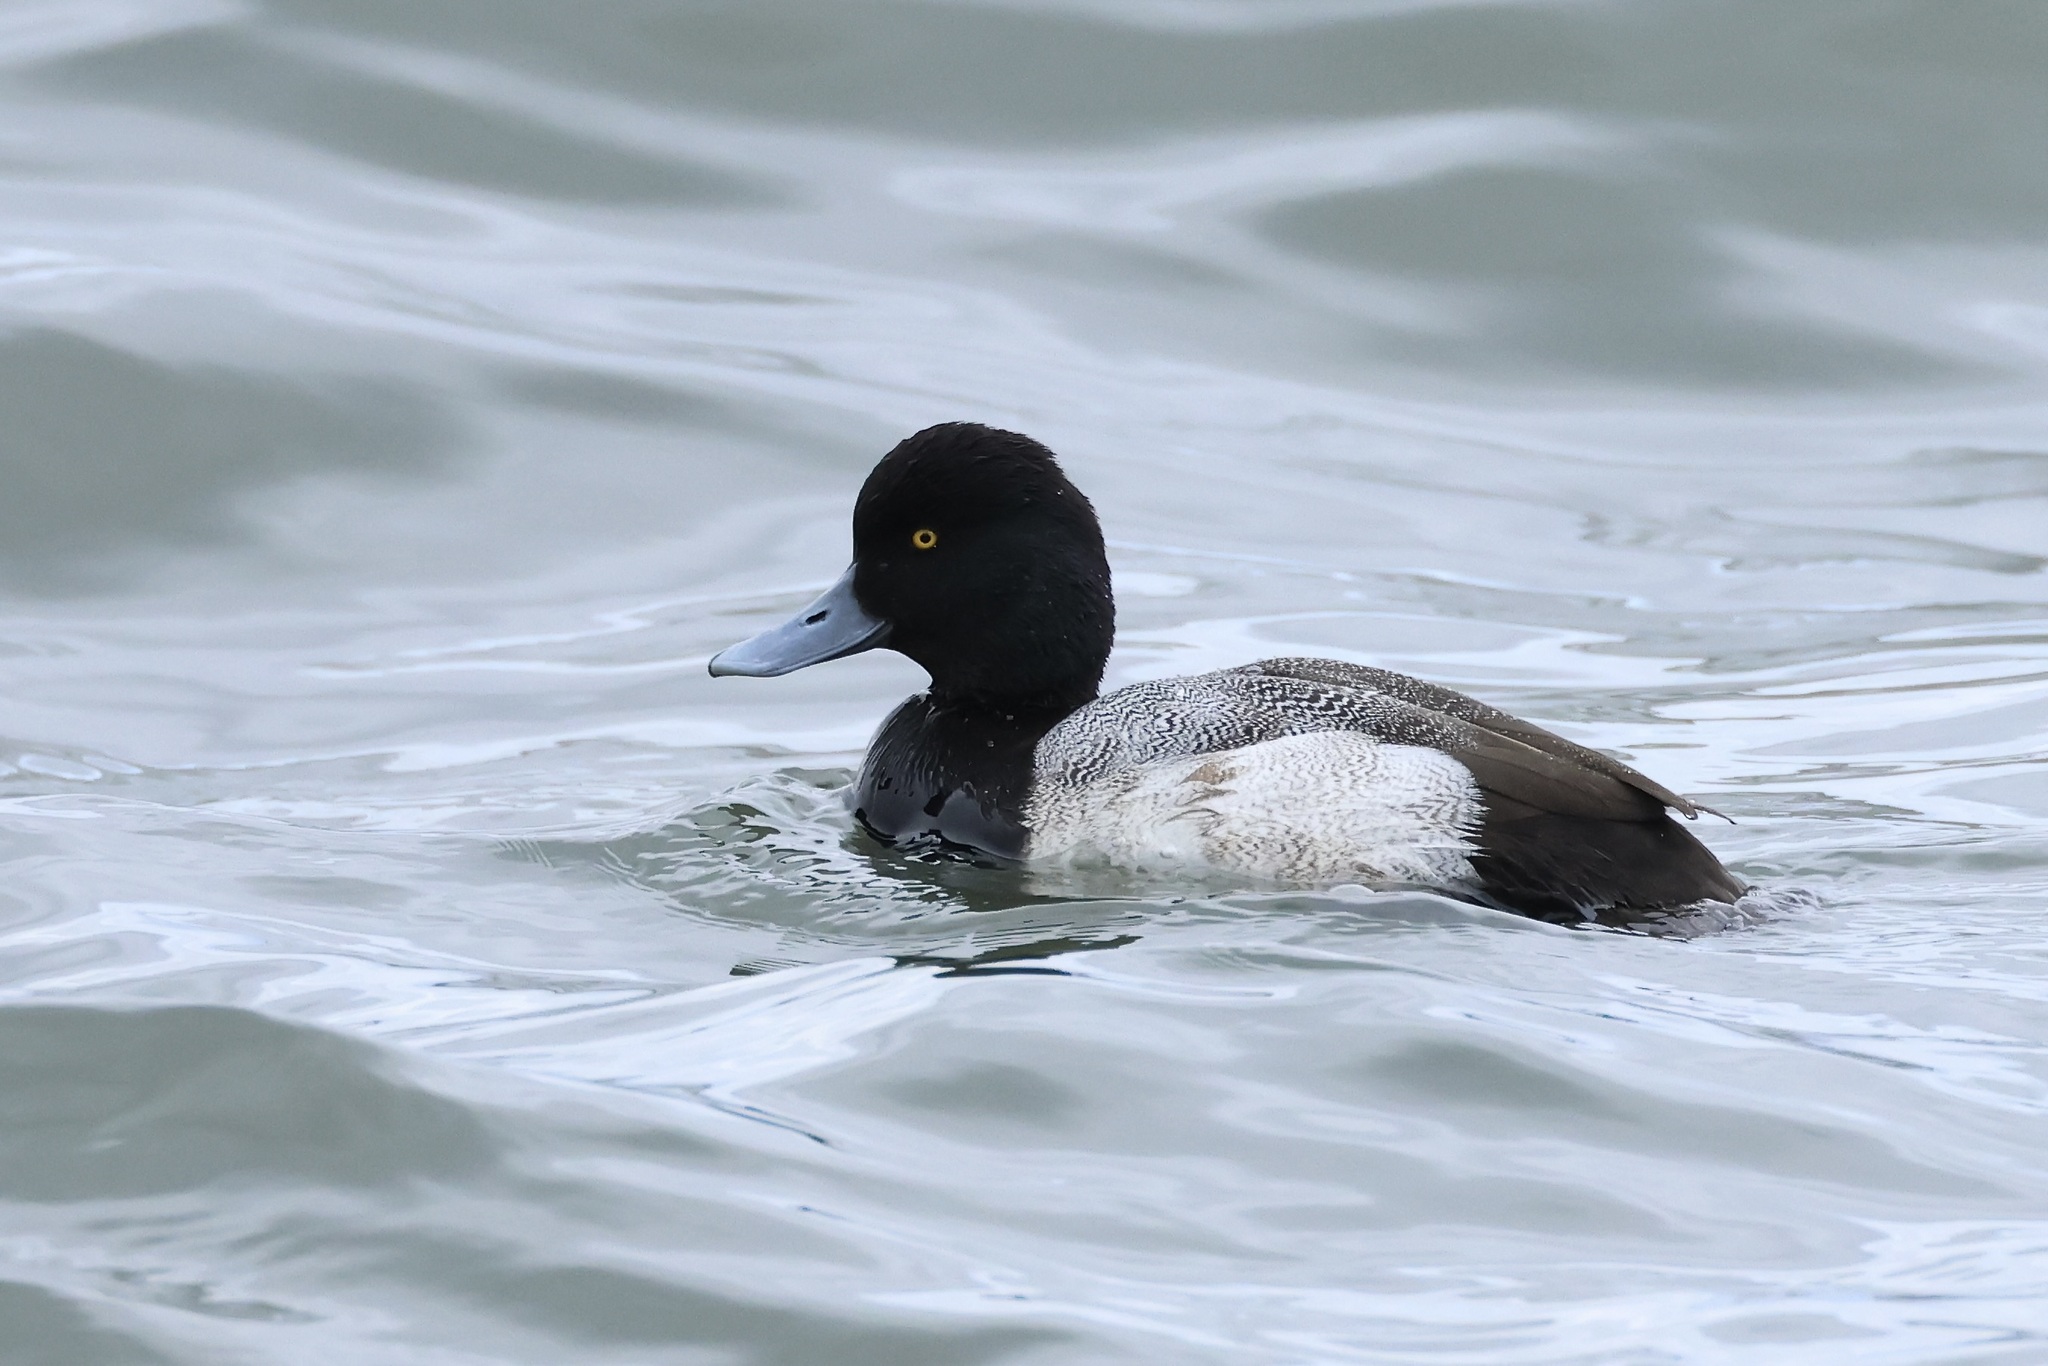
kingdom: Animalia
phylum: Chordata
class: Aves
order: Anseriformes
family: Anatidae
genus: Aythya
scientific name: Aythya affinis
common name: Lesser scaup
